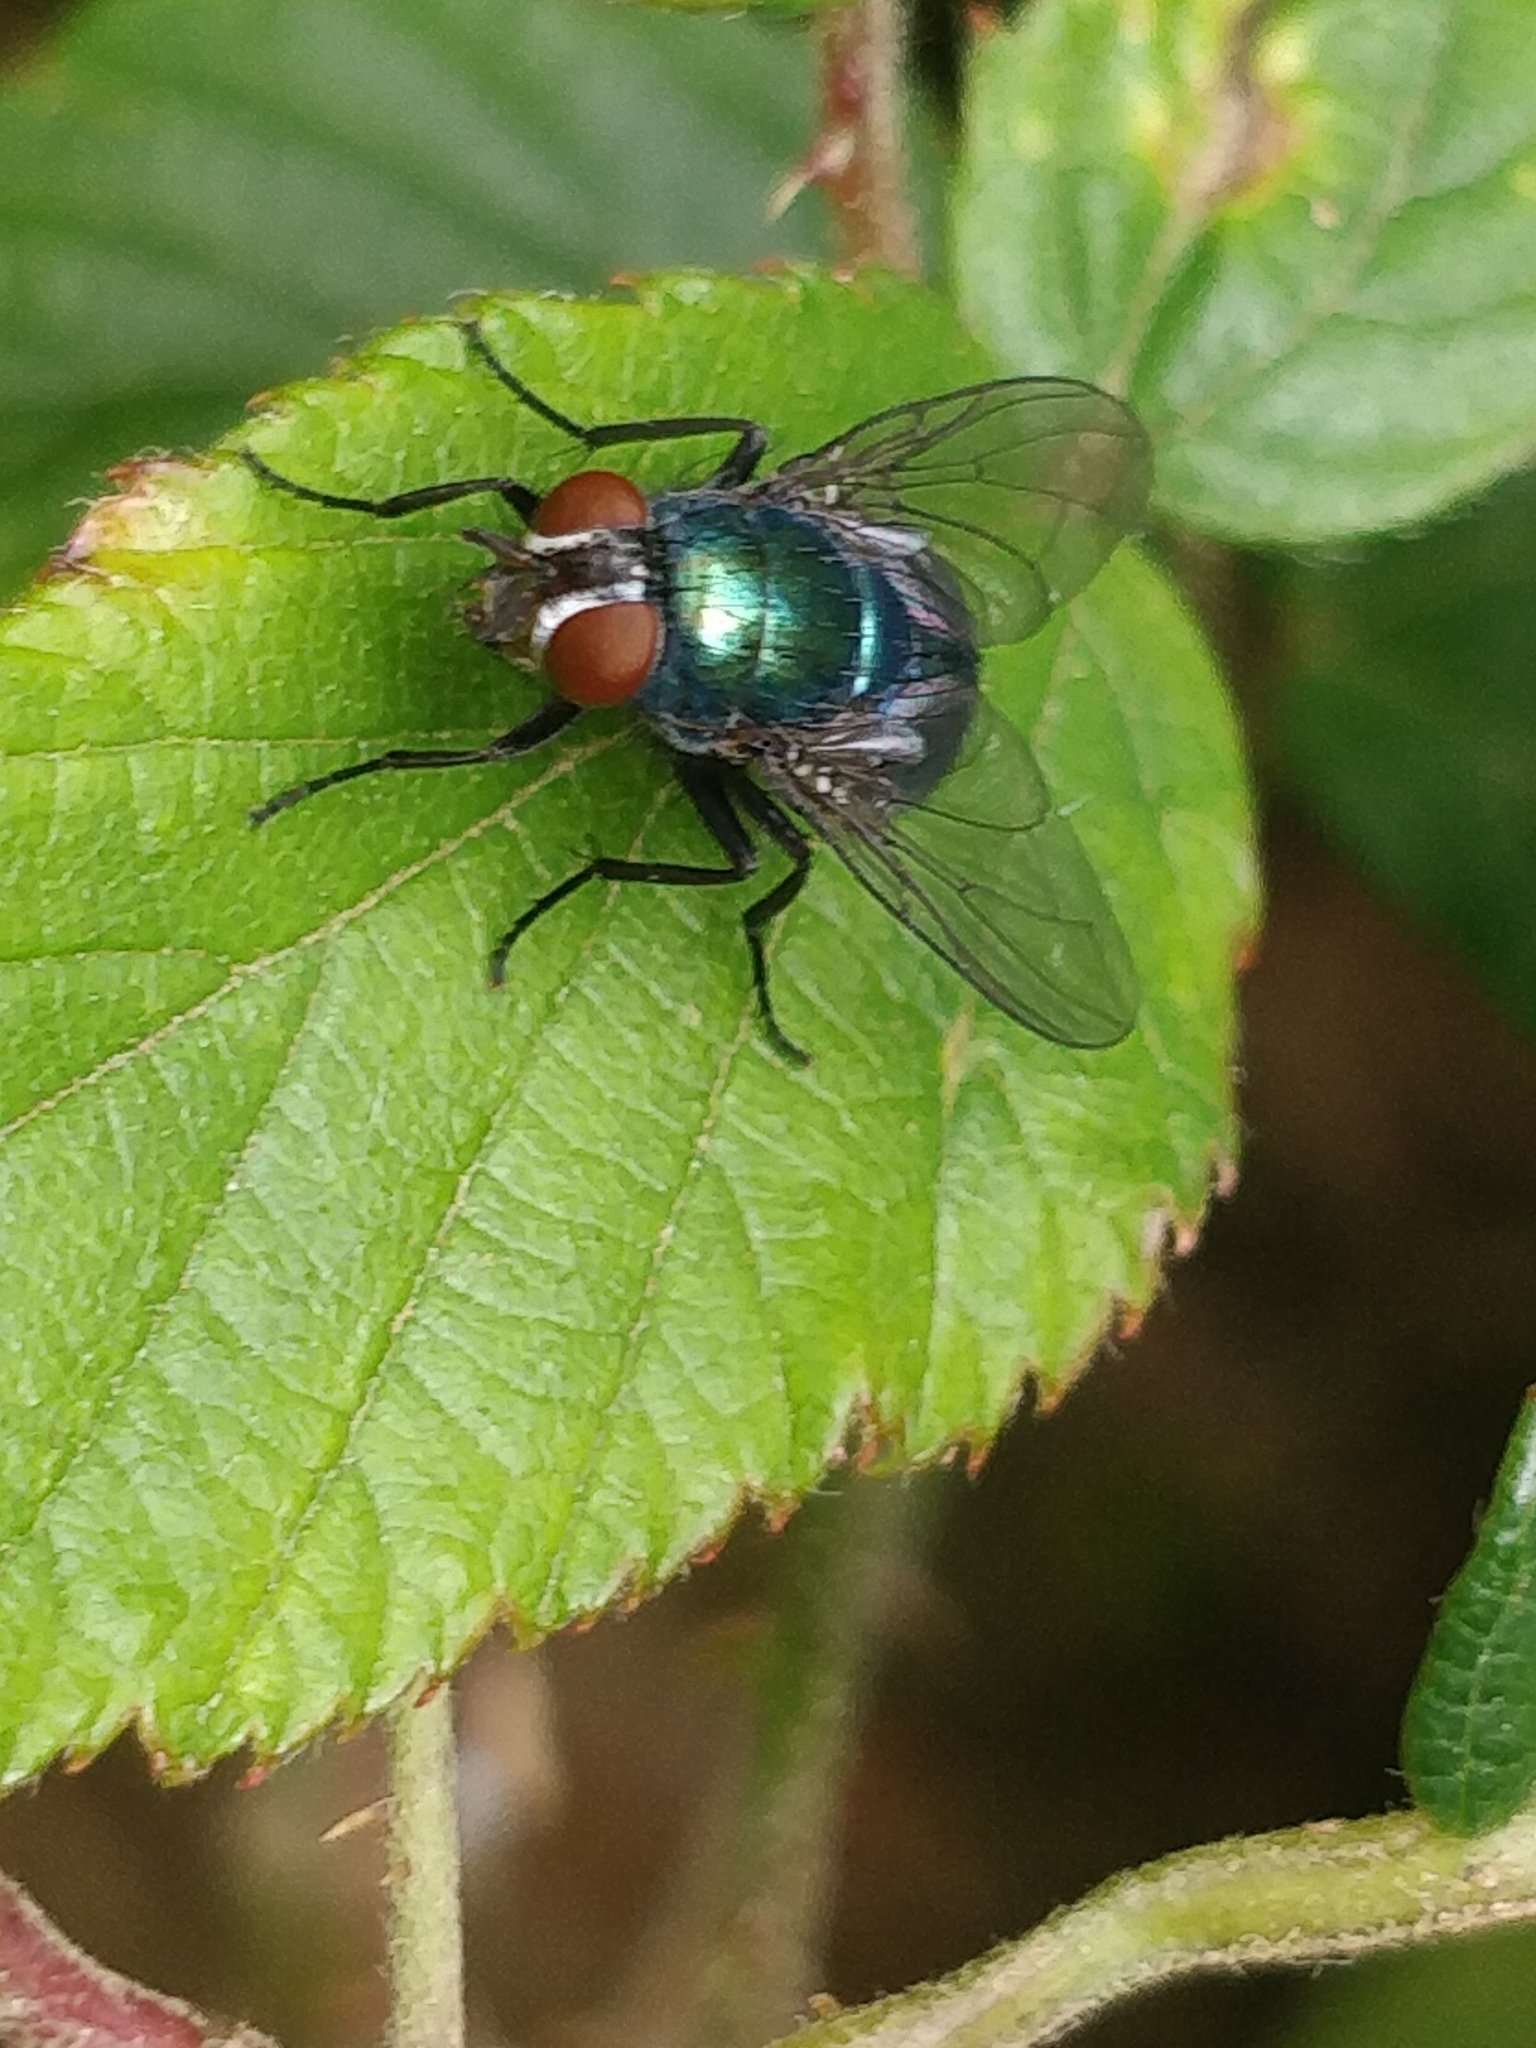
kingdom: Animalia
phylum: Arthropoda
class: Insecta
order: Diptera
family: Calliphoridae
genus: Lucilia
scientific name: Lucilia sericata
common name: Blow fly
